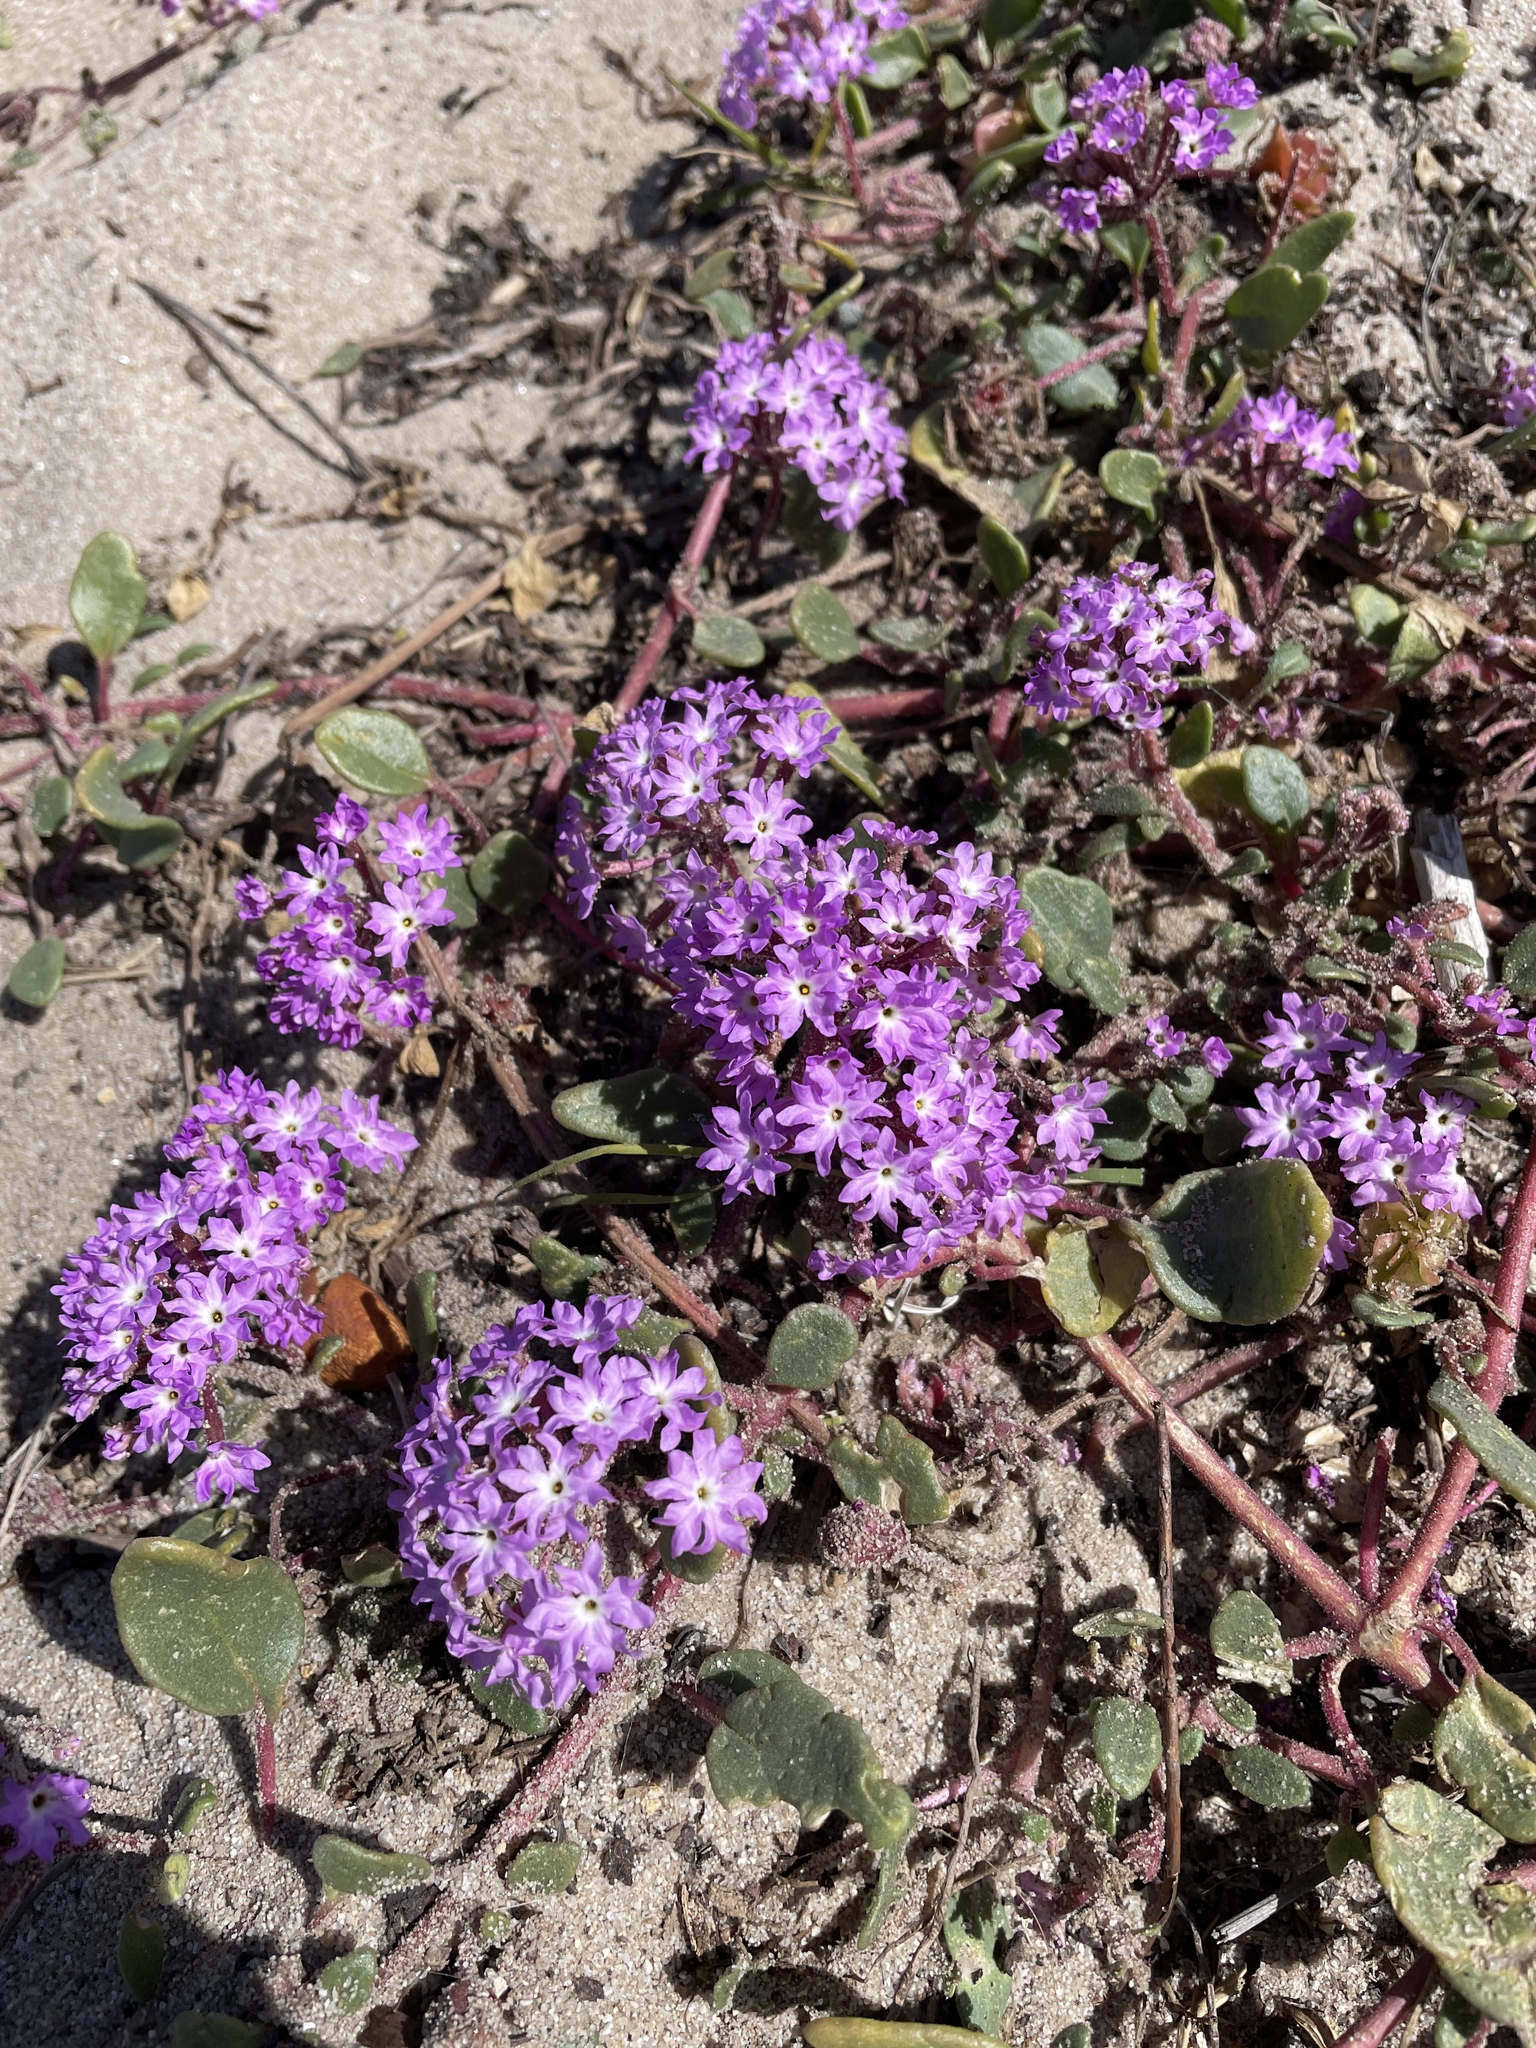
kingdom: Plantae
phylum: Tracheophyta
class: Magnoliopsida
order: Caryophyllales
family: Nyctaginaceae
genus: Abronia
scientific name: Abronia umbellata
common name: Sand-verbena
